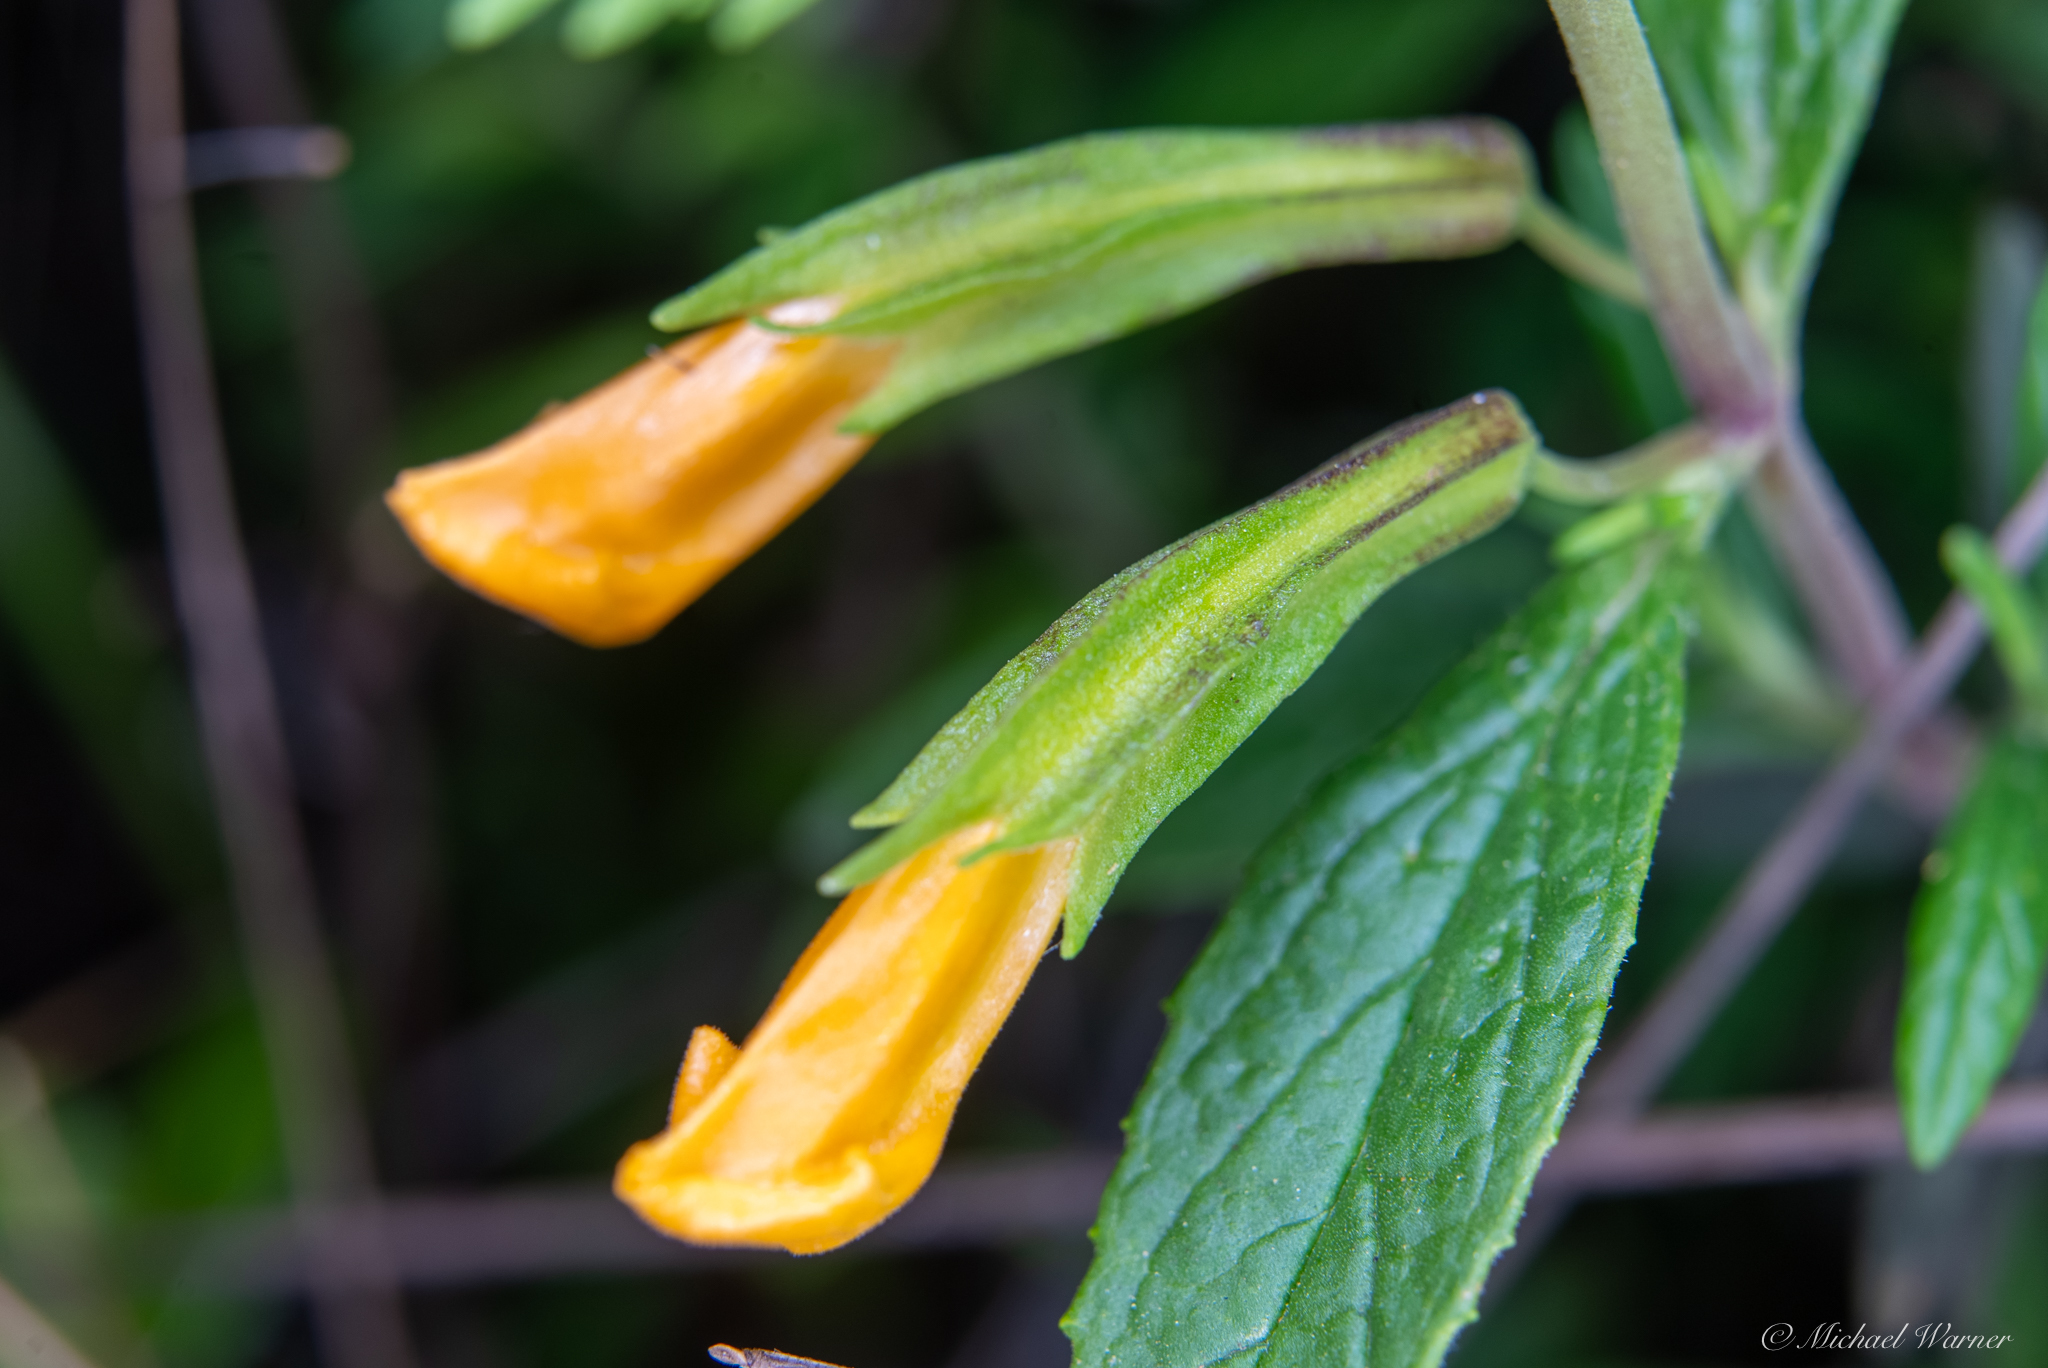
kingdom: Plantae
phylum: Tracheophyta
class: Magnoliopsida
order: Lamiales
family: Phrymaceae
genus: Diplacus
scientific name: Diplacus aurantiacus
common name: Bush monkey-flower
